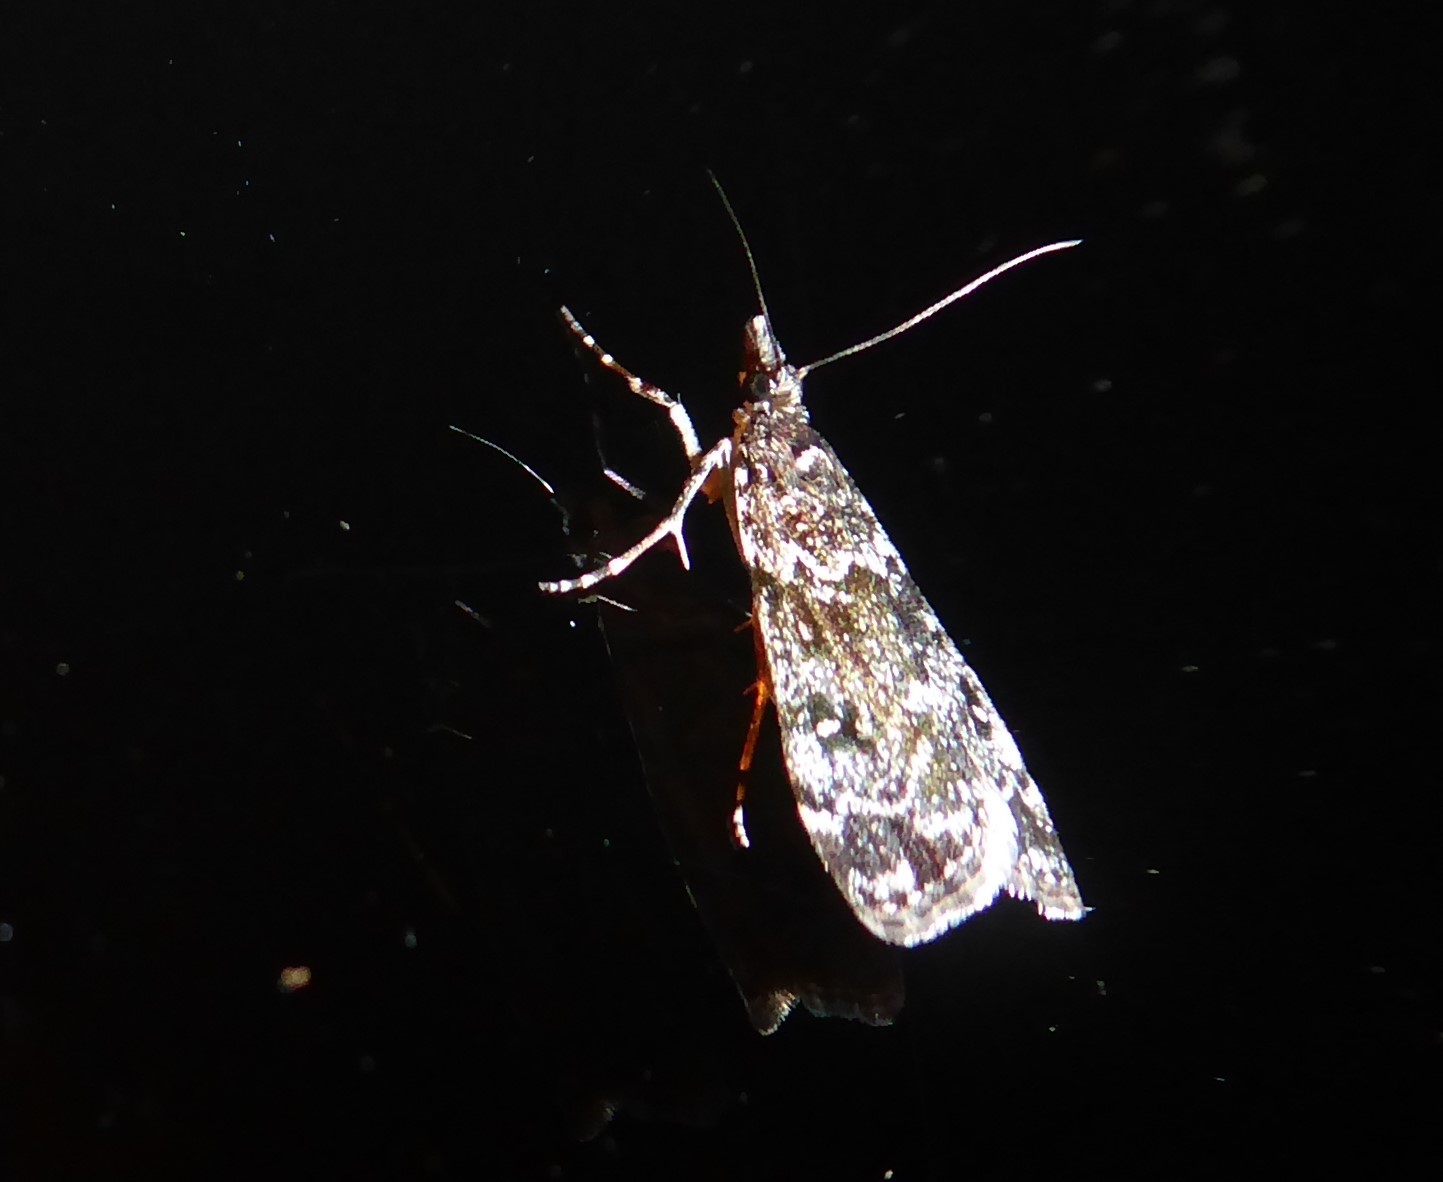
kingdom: Animalia
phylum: Arthropoda
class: Insecta
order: Lepidoptera
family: Crambidae
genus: Eudonia
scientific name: Eudonia philerga
